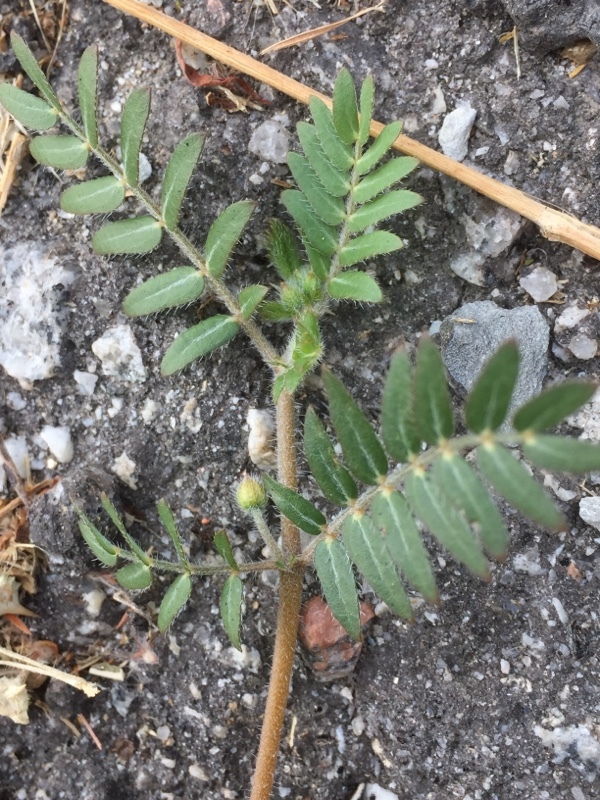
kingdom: Plantae
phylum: Tracheophyta
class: Magnoliopsida
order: Zygophyllales
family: Zygophyllaceae
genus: Tribulus
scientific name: Tribulus terrestris
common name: Puncturevine
